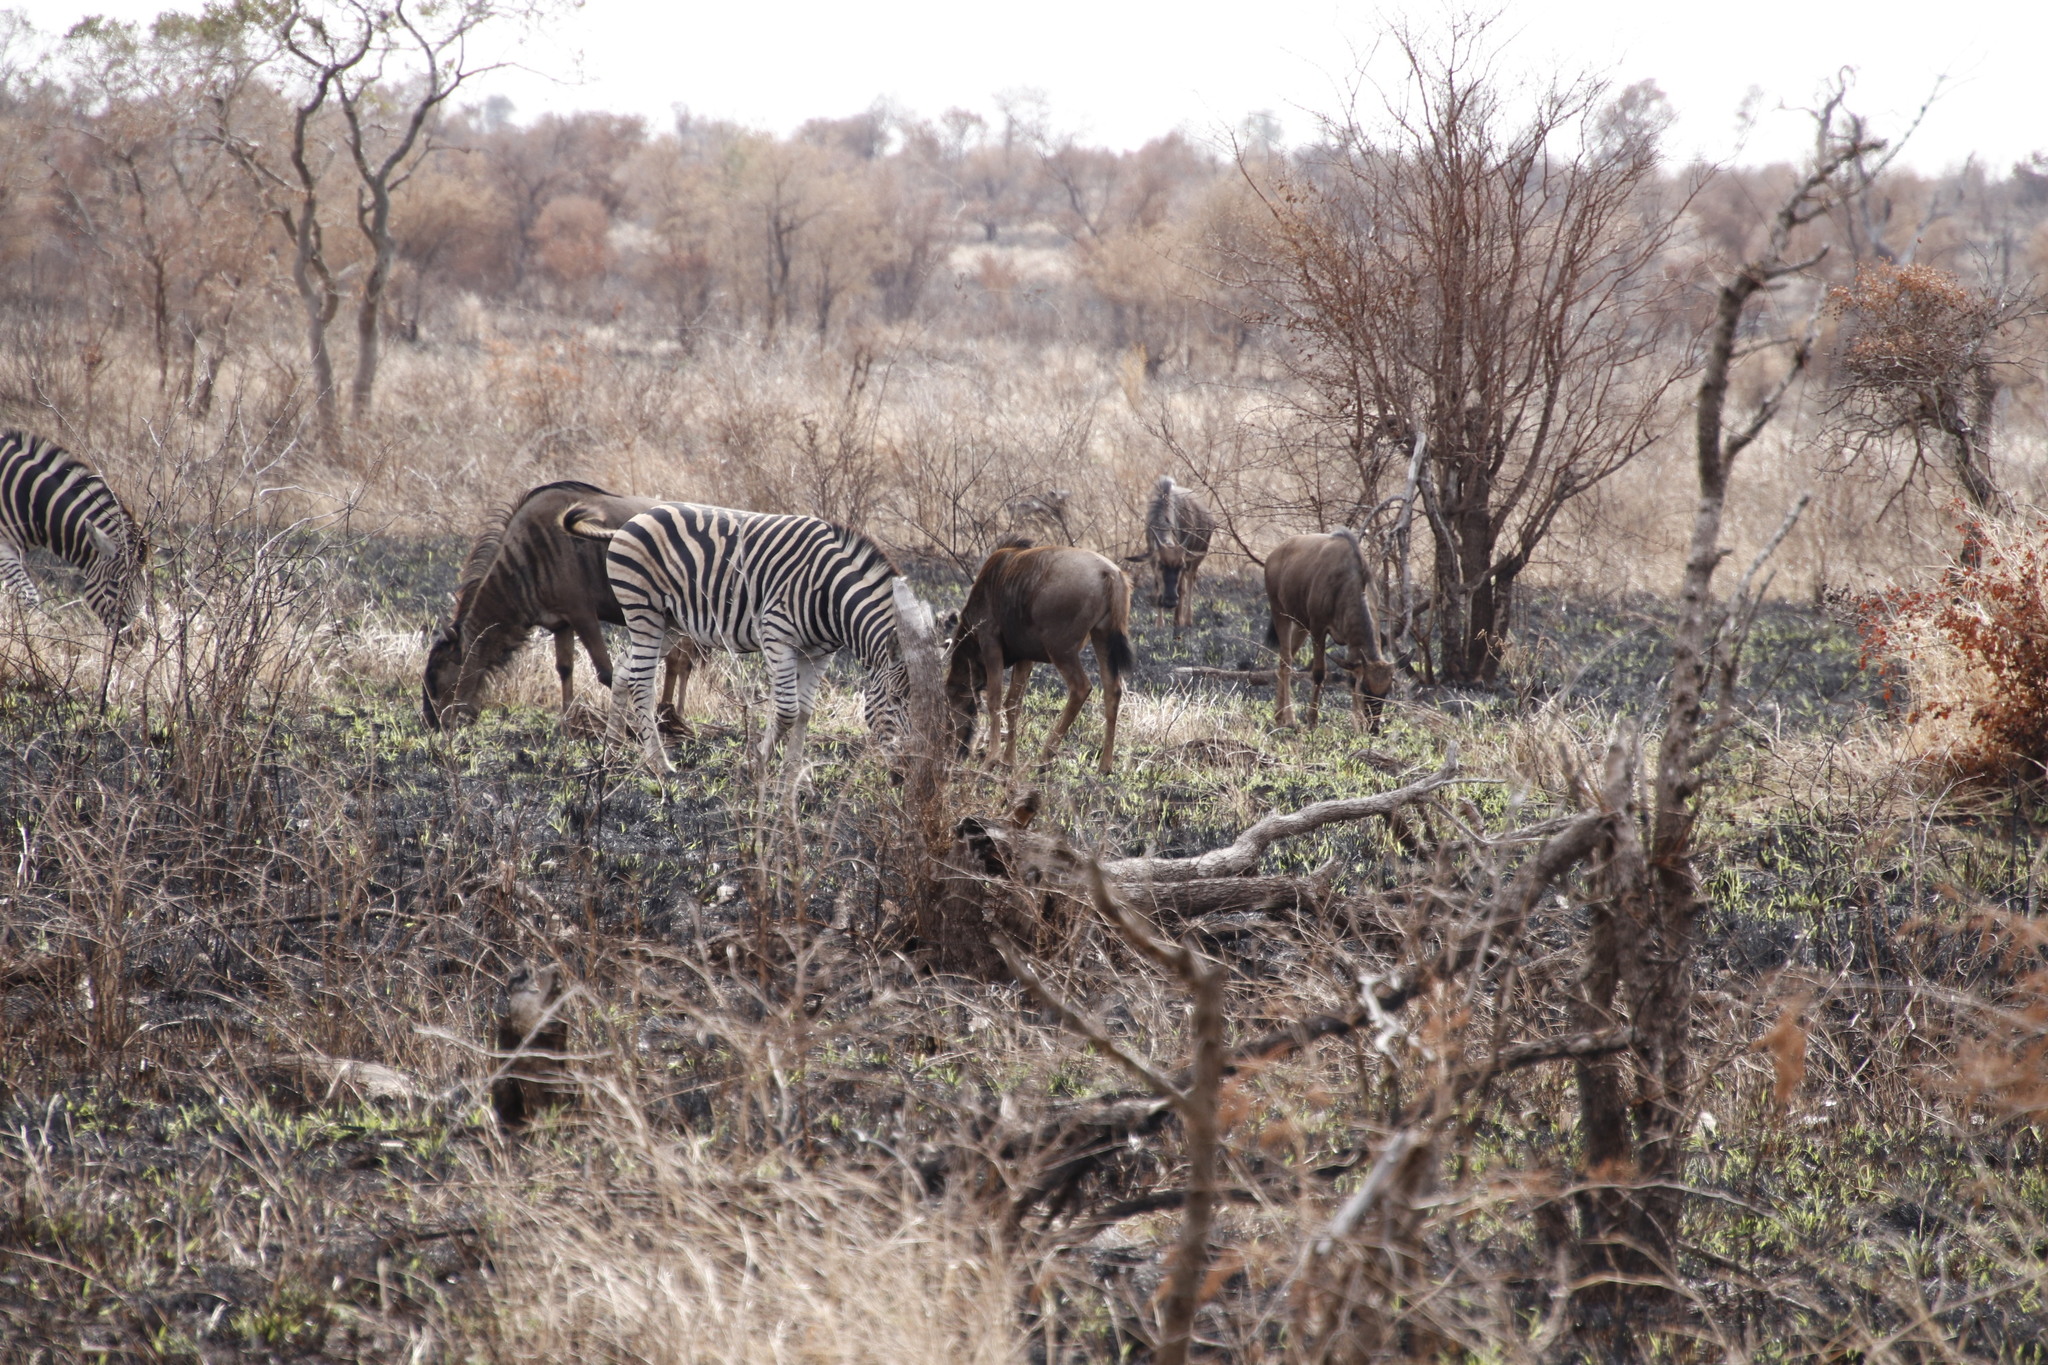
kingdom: Animalia
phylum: Chordata
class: Mammalia
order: Perissodactyla
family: Equidae
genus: Equus
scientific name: Equus quagga
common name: Plains zebra
